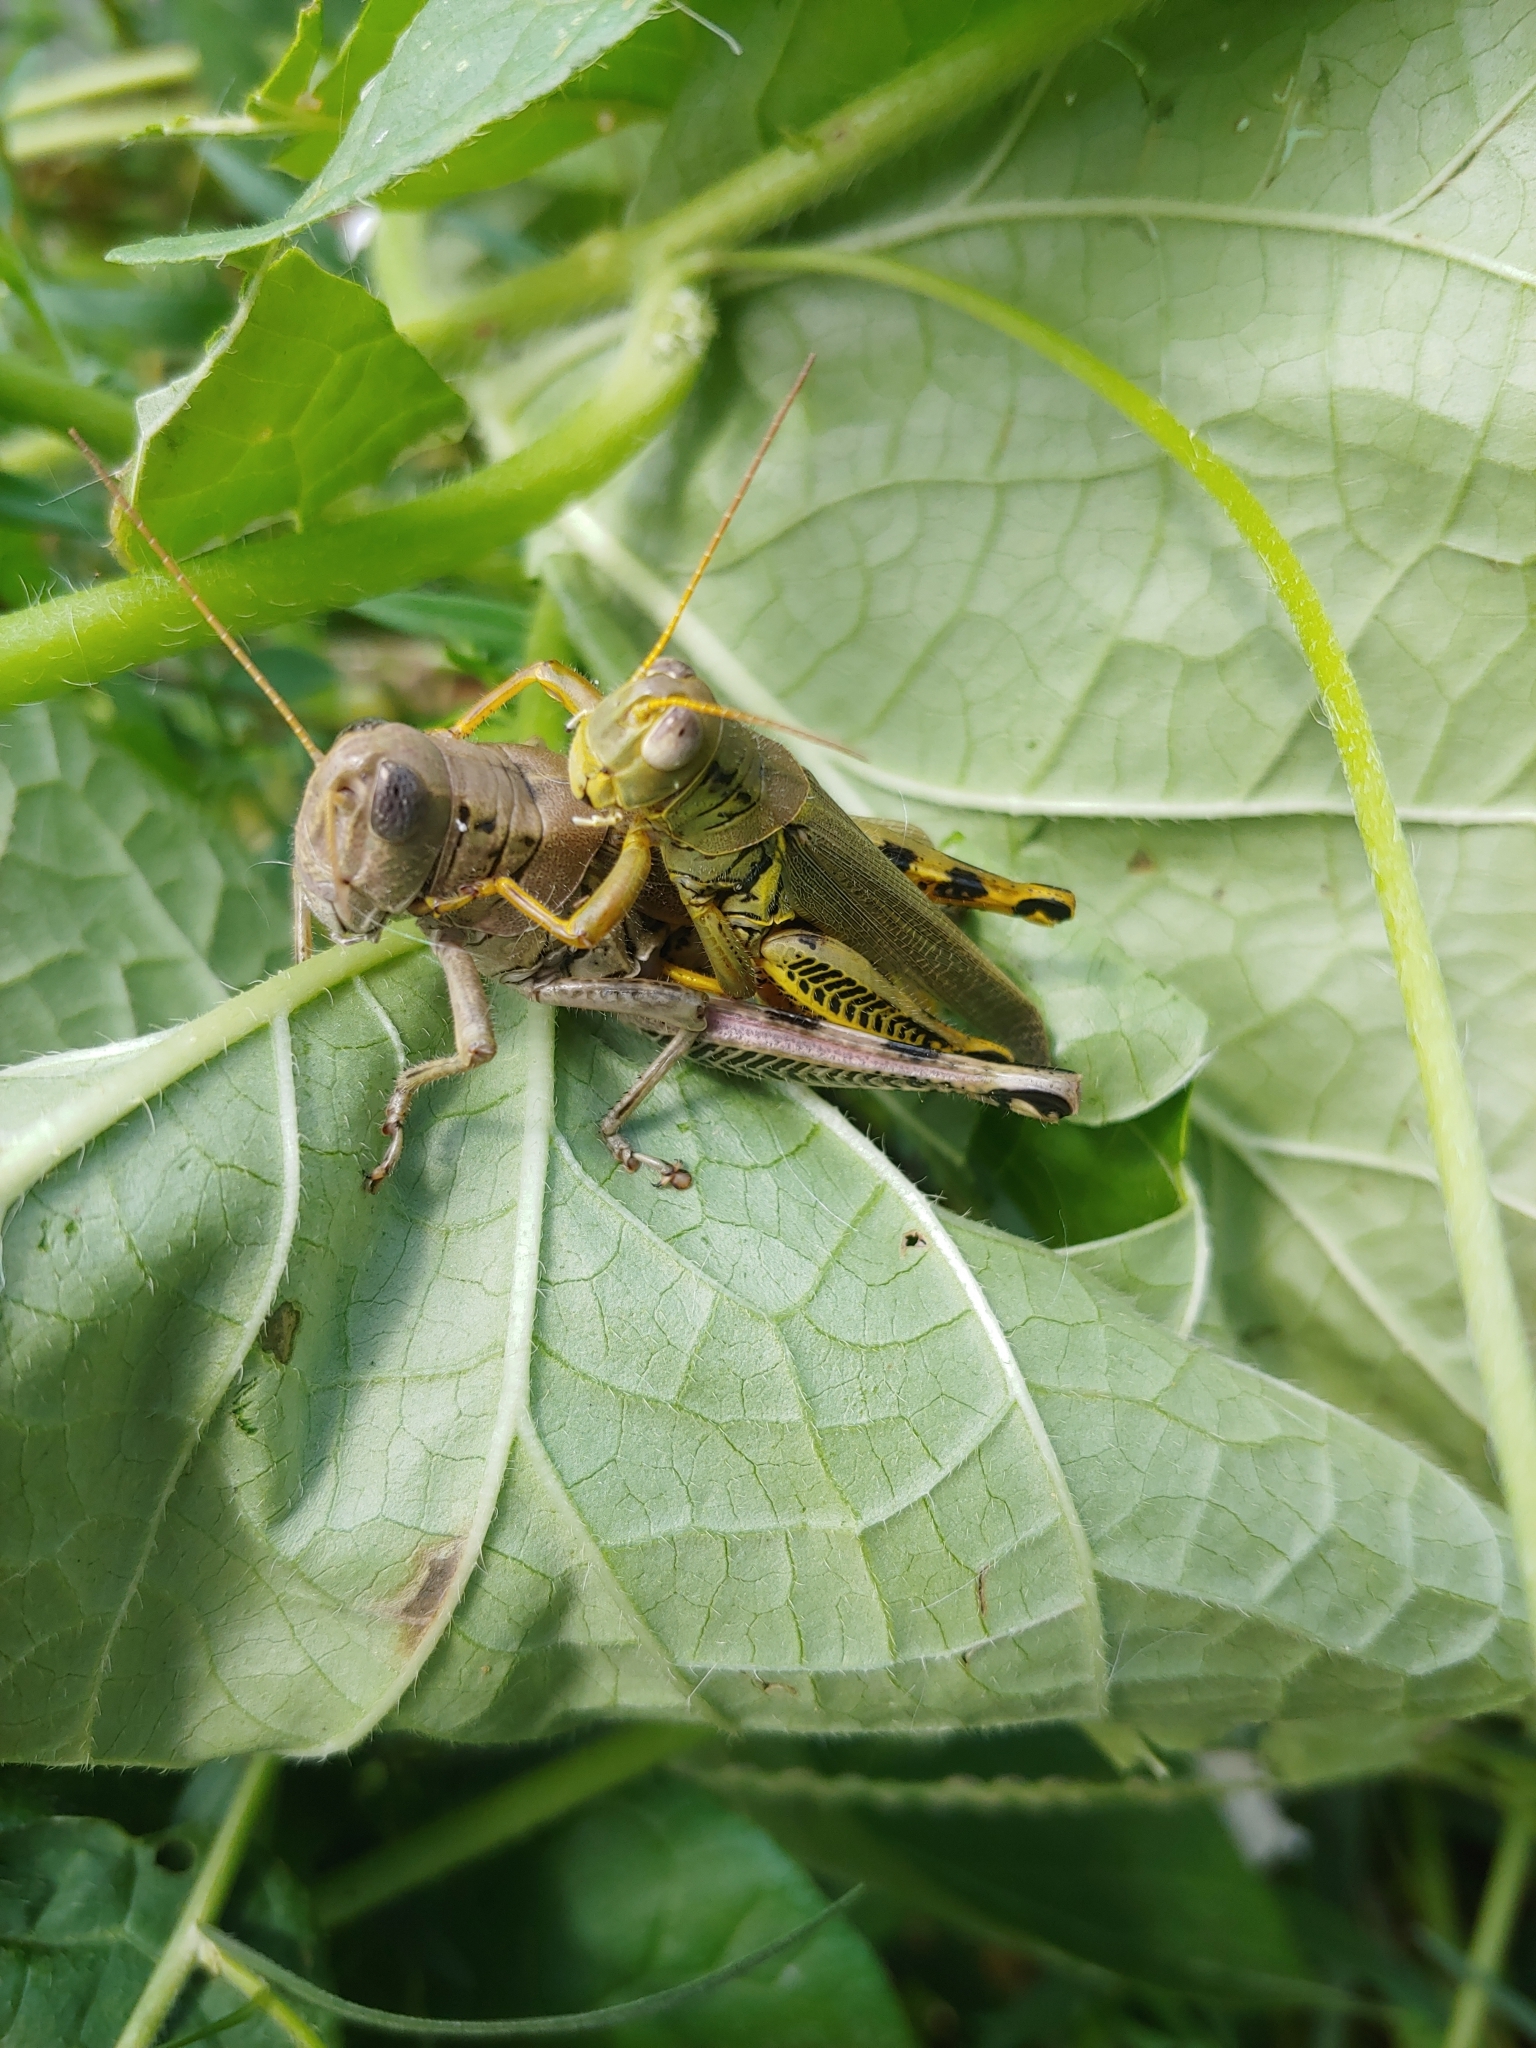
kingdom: Animalia
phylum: Arthropoda
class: Insecta
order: Orthoptera
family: Acrididae
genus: Melanoplus
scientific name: Melanoplus differentialis
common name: Differential grasshopper
